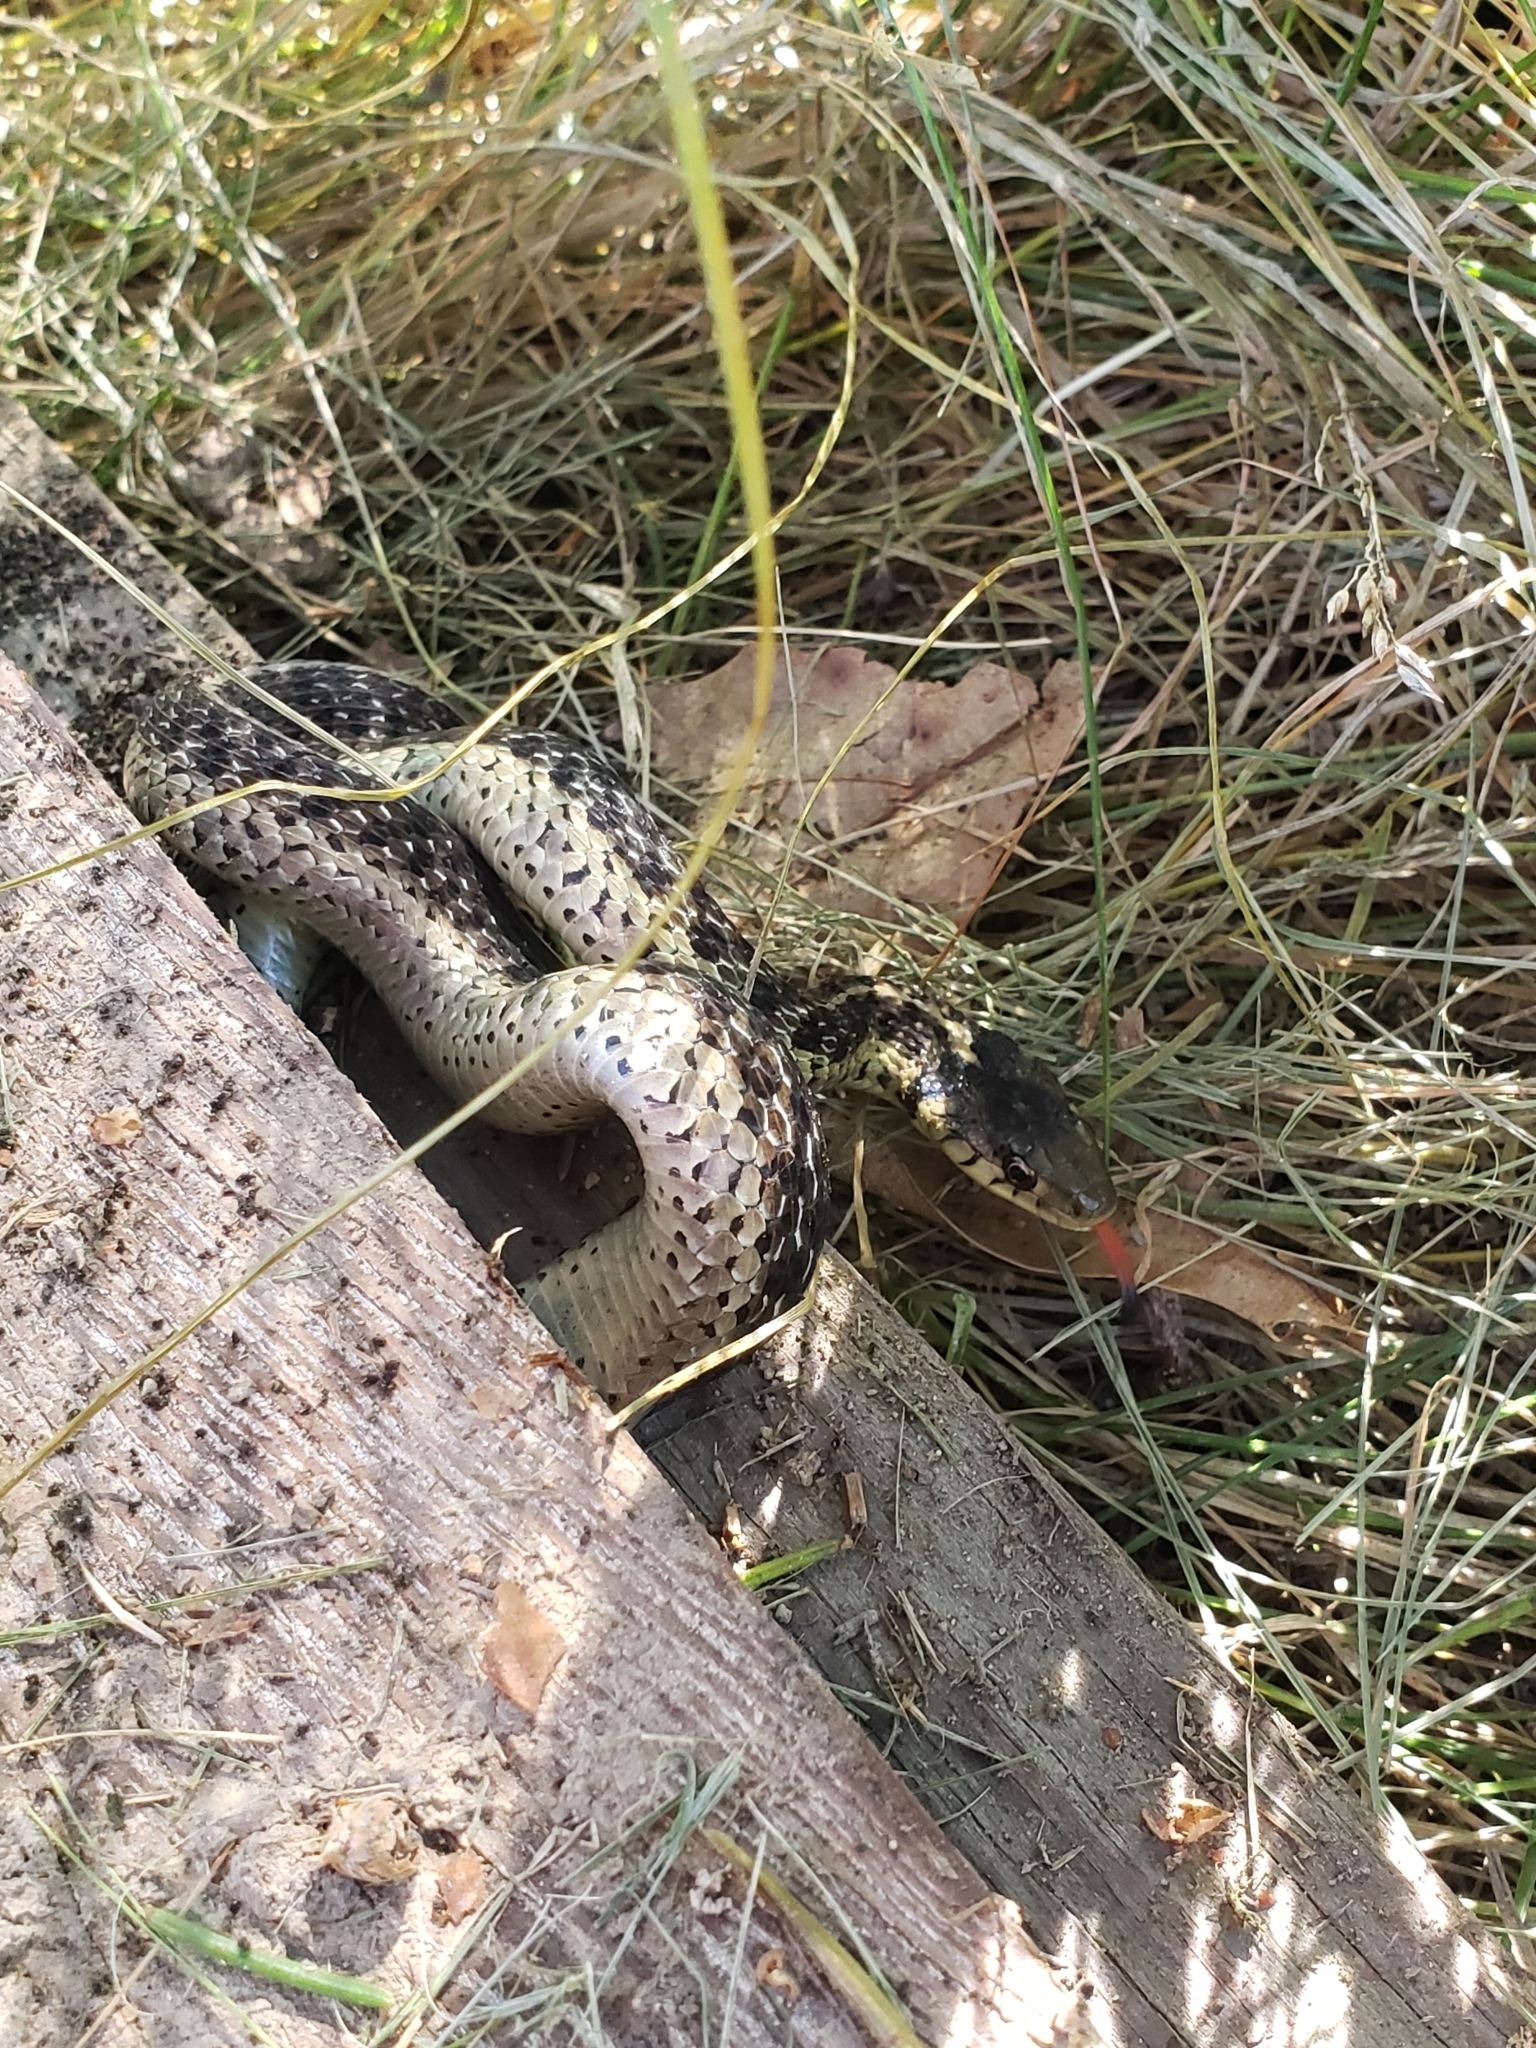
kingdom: Animalia
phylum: Chordata
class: Squamata
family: Colubridae
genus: Thamnophis
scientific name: Thamnophis sirtalis
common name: Common garter snake
